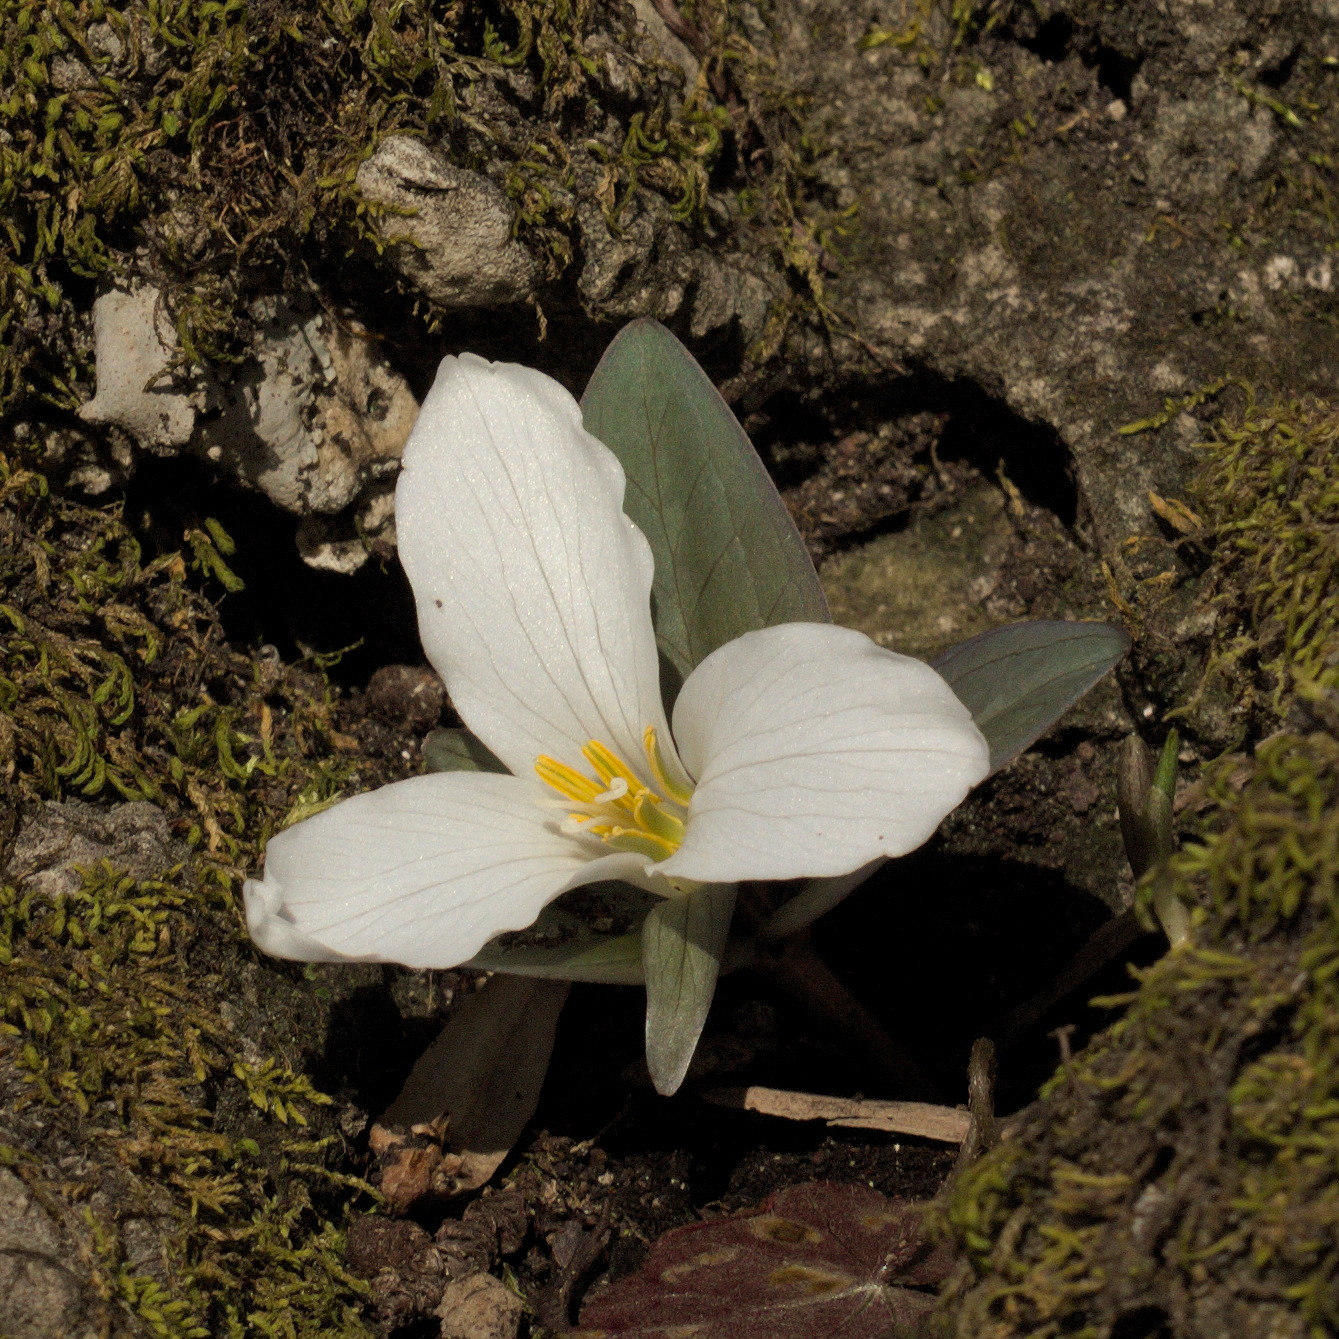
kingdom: Plantae
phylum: Tracheophyta
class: Liliopsida
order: Liliales
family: Melanthiaceae
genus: Trillium
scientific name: Trillium nivale
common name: Dwarf white trillium
